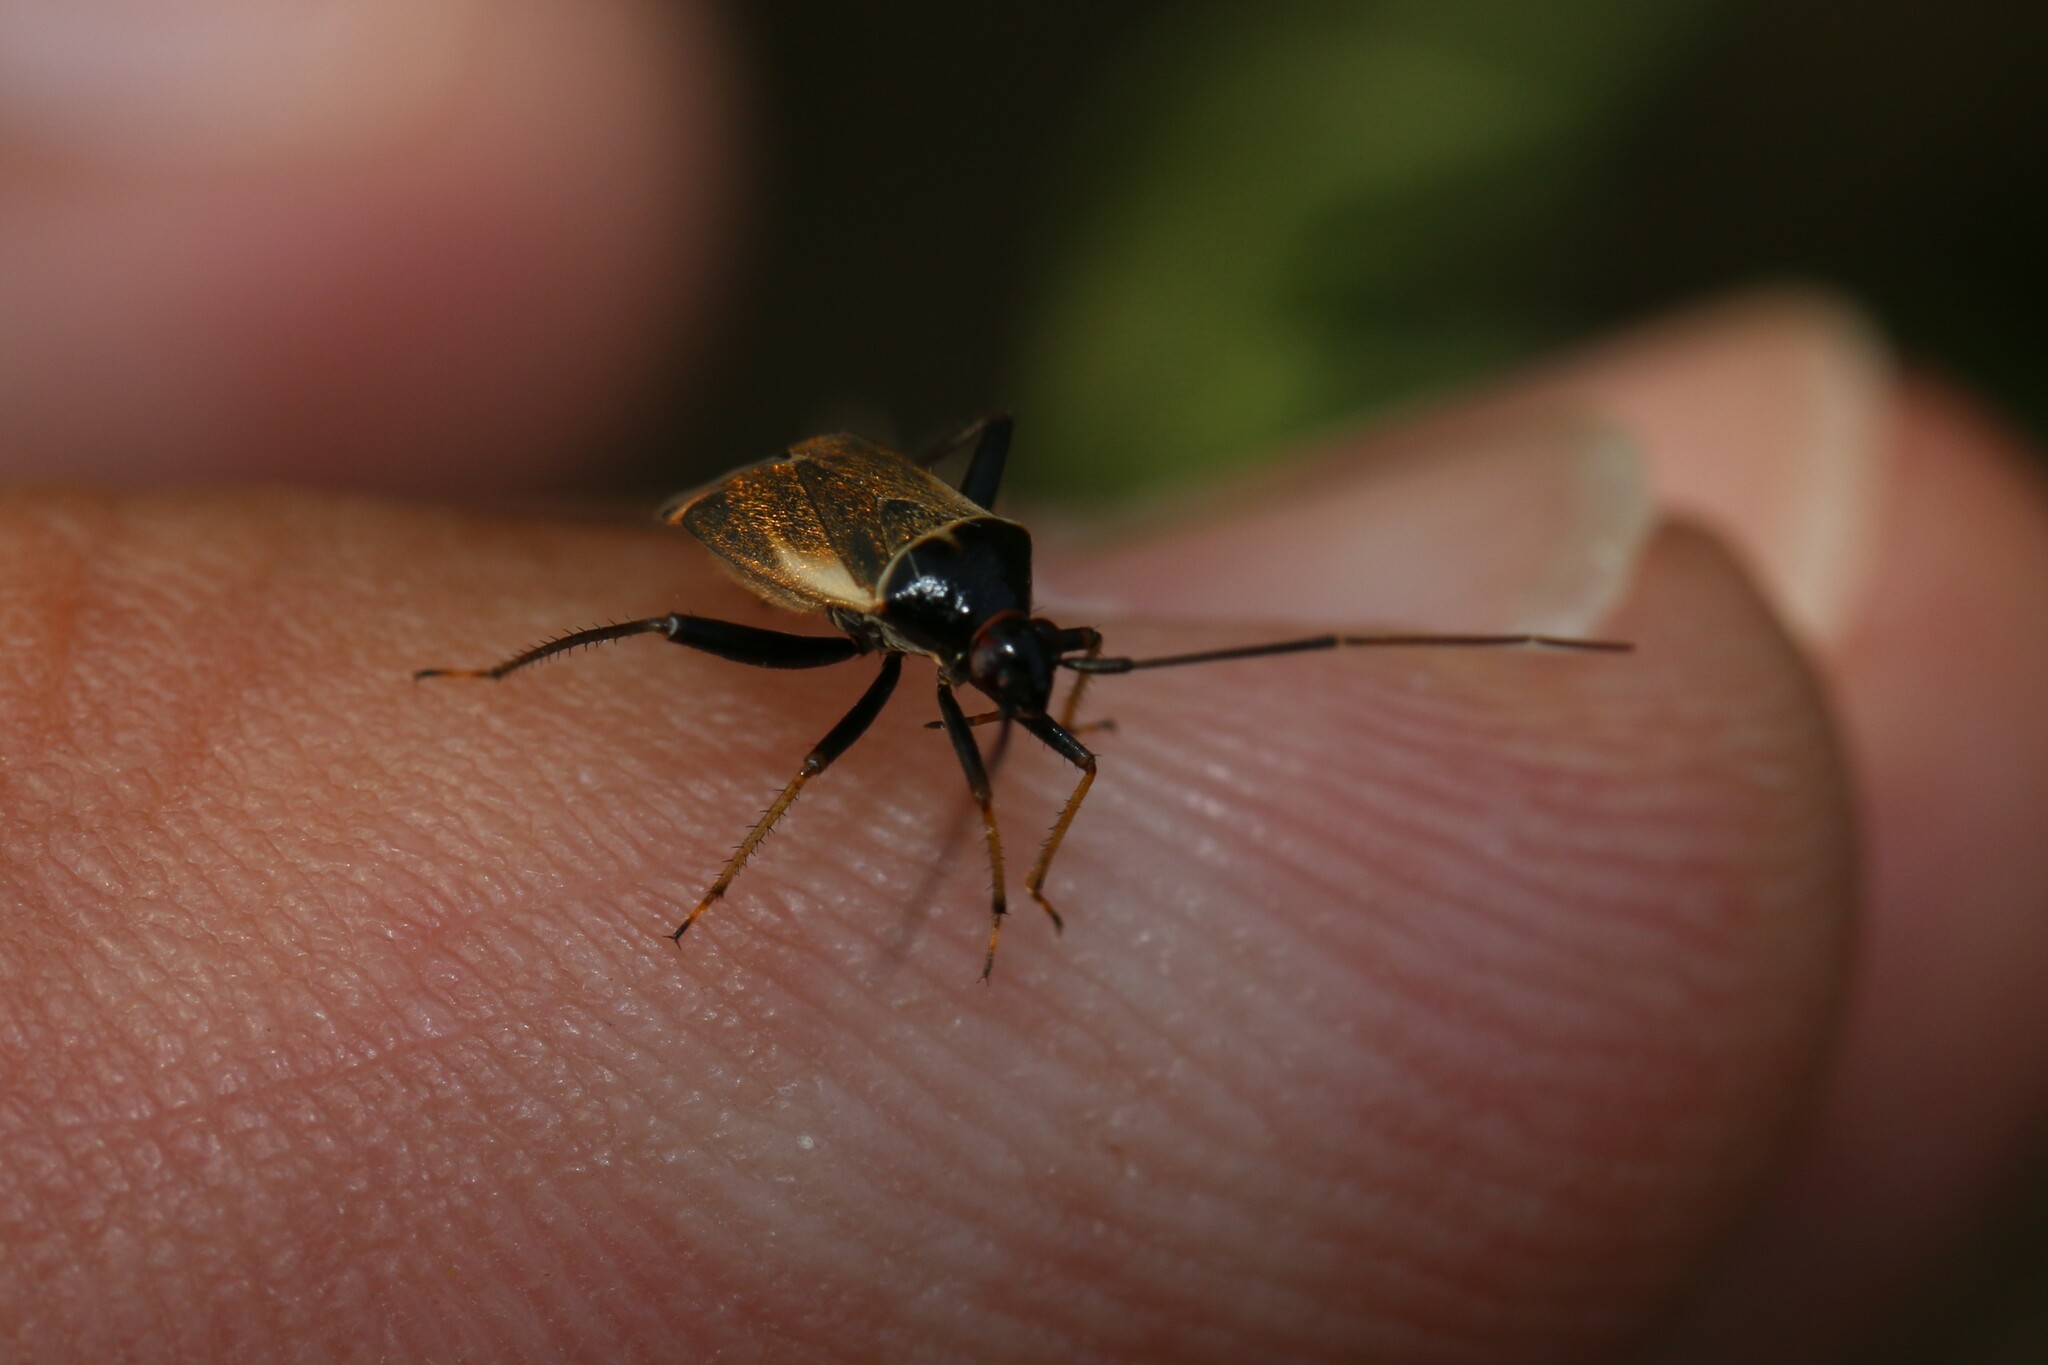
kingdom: Animalia
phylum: Arthropoda
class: Insecta
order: Hemiptera
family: Miridae
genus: Adelphocoris
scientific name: Adelphocoris seticornis
